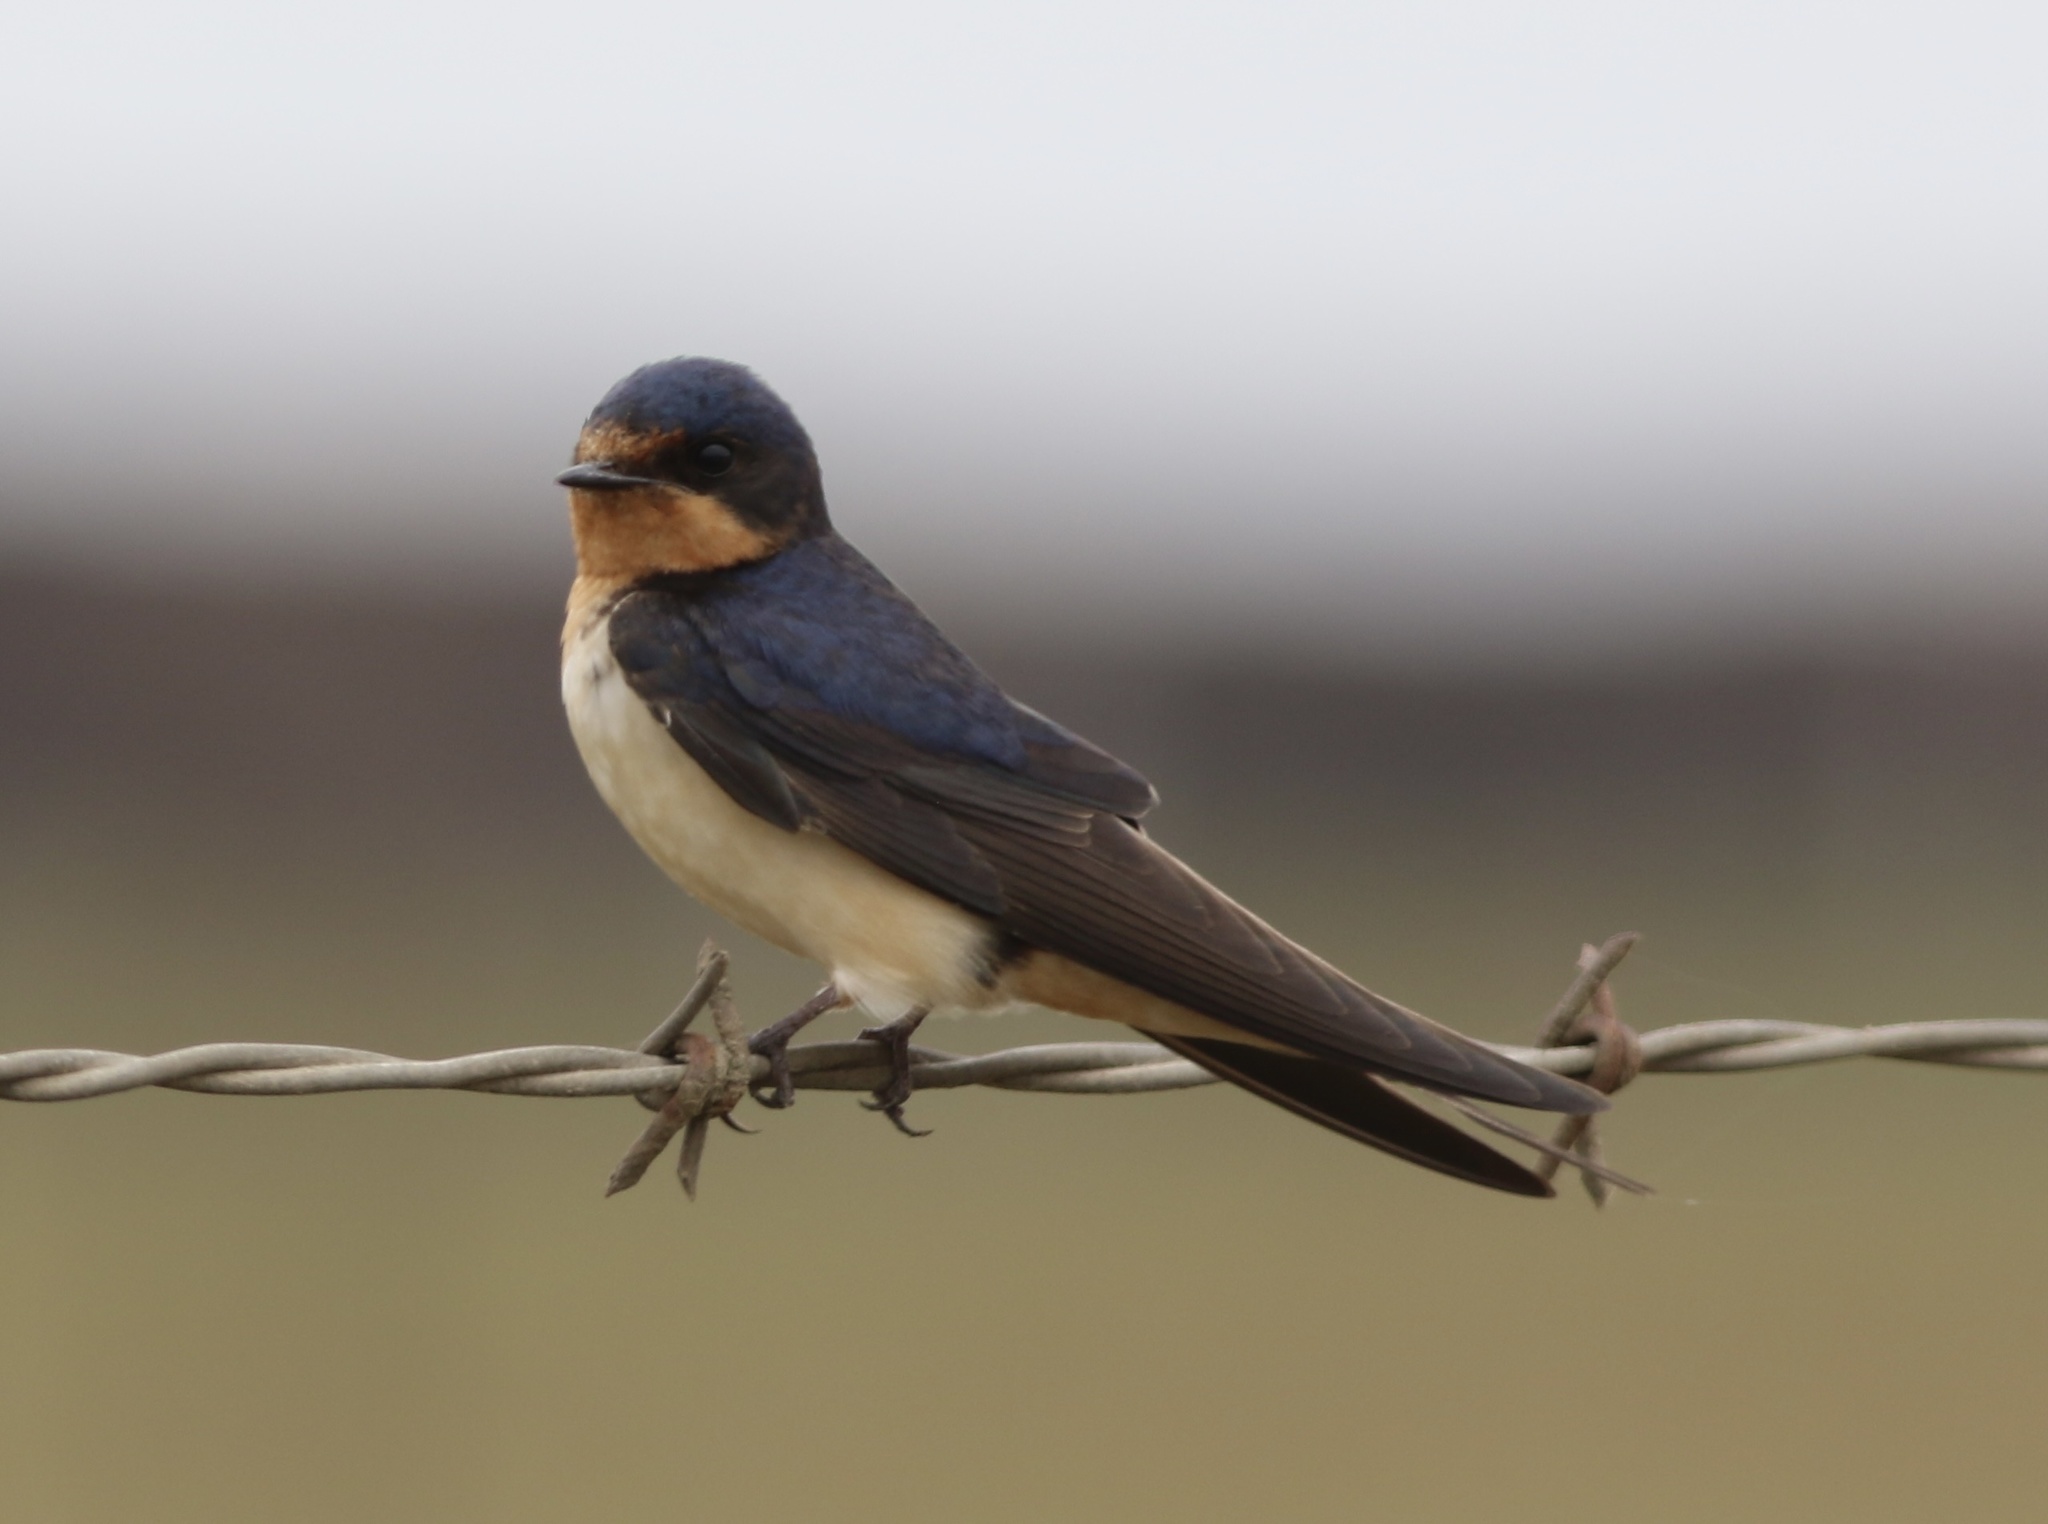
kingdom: Animalia
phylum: Chordata
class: Aves
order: Passeriformes
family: Hirundinidae
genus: Hirundo
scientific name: Hirundo rustica
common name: Barn swallow
